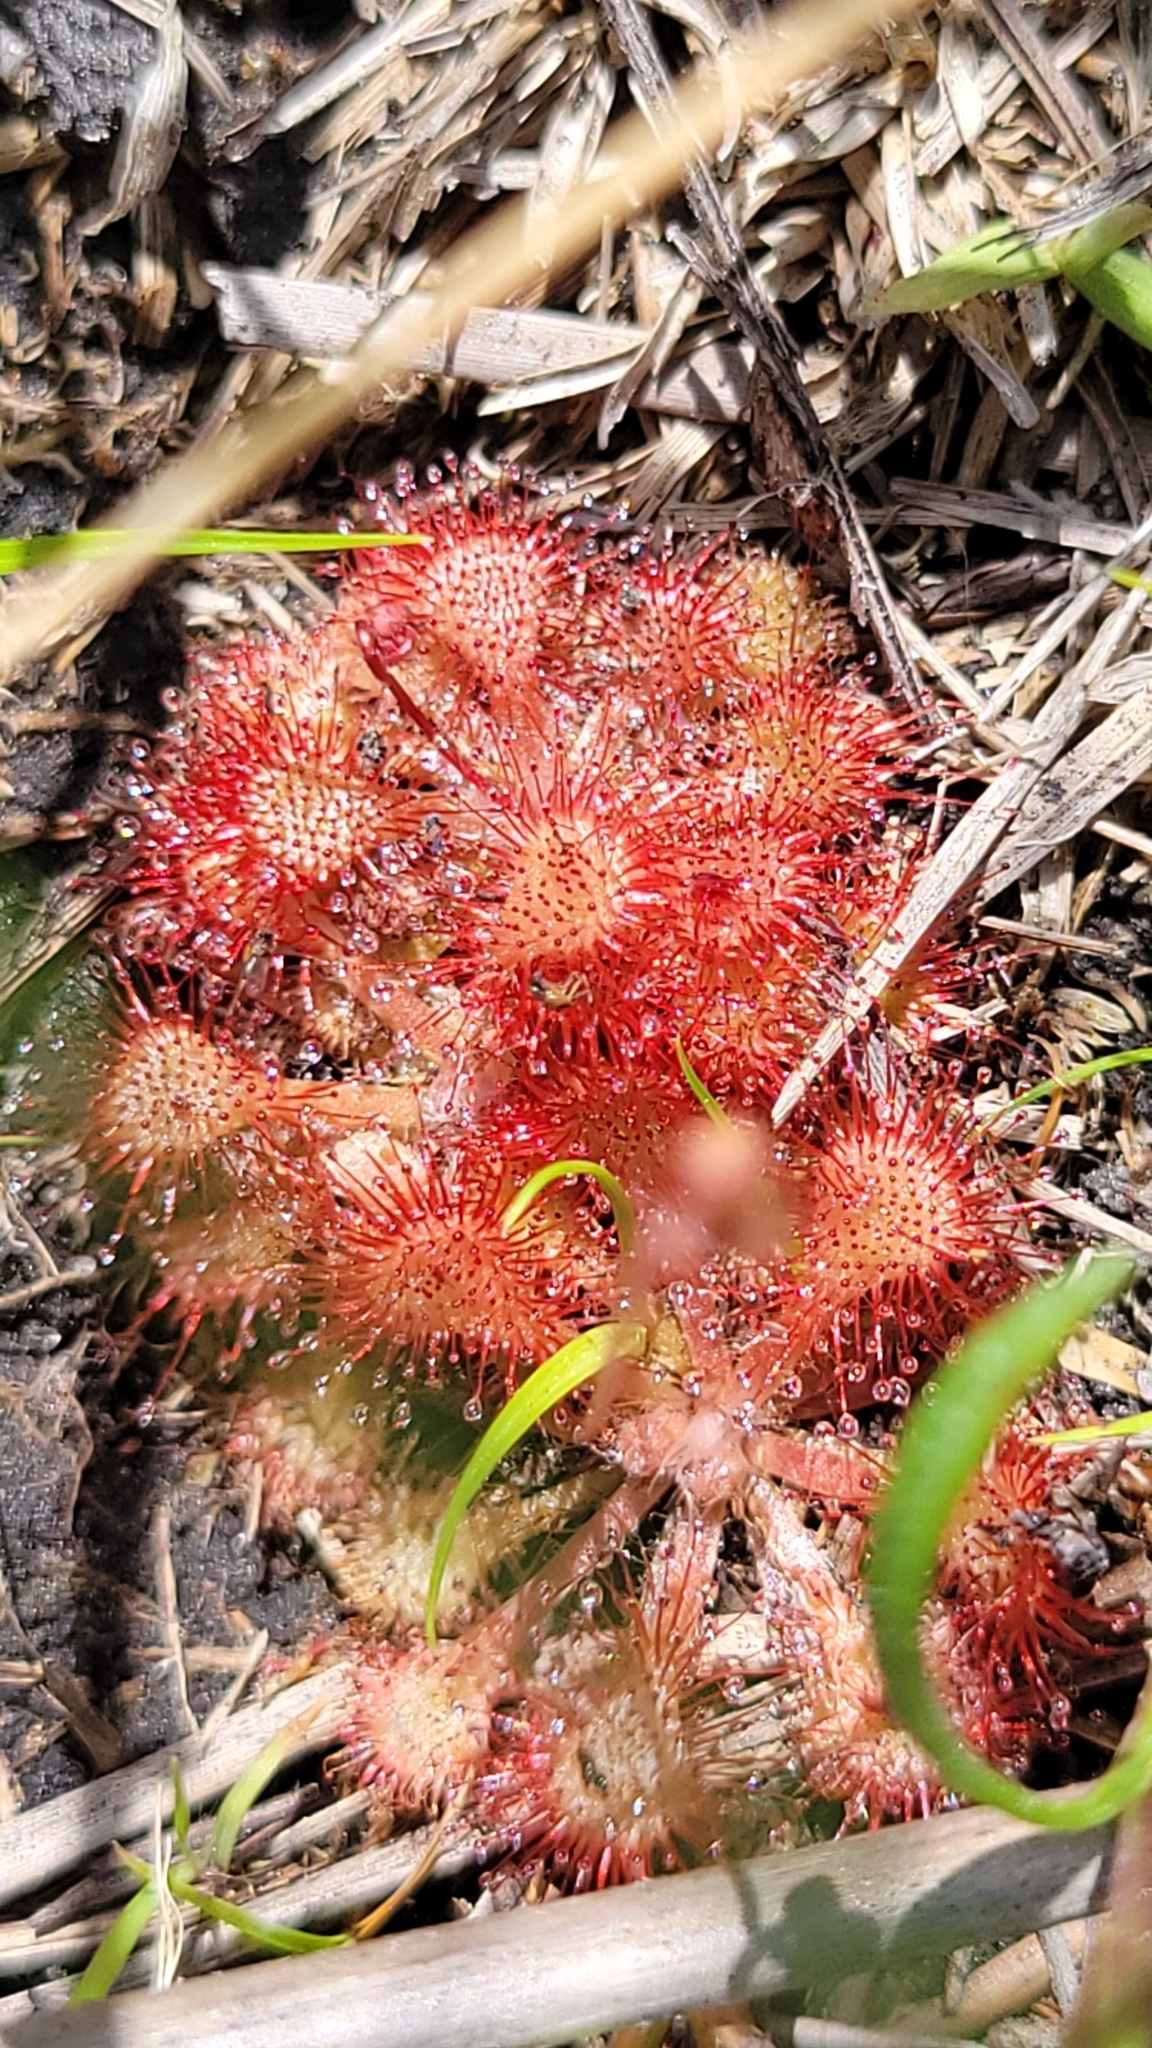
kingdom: Plantae
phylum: Tracheophyta
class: Magnoliopsida
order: Caryophyllales
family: Droseraceae
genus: Drosera
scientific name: Drosera capillaris
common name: Pink sundew
